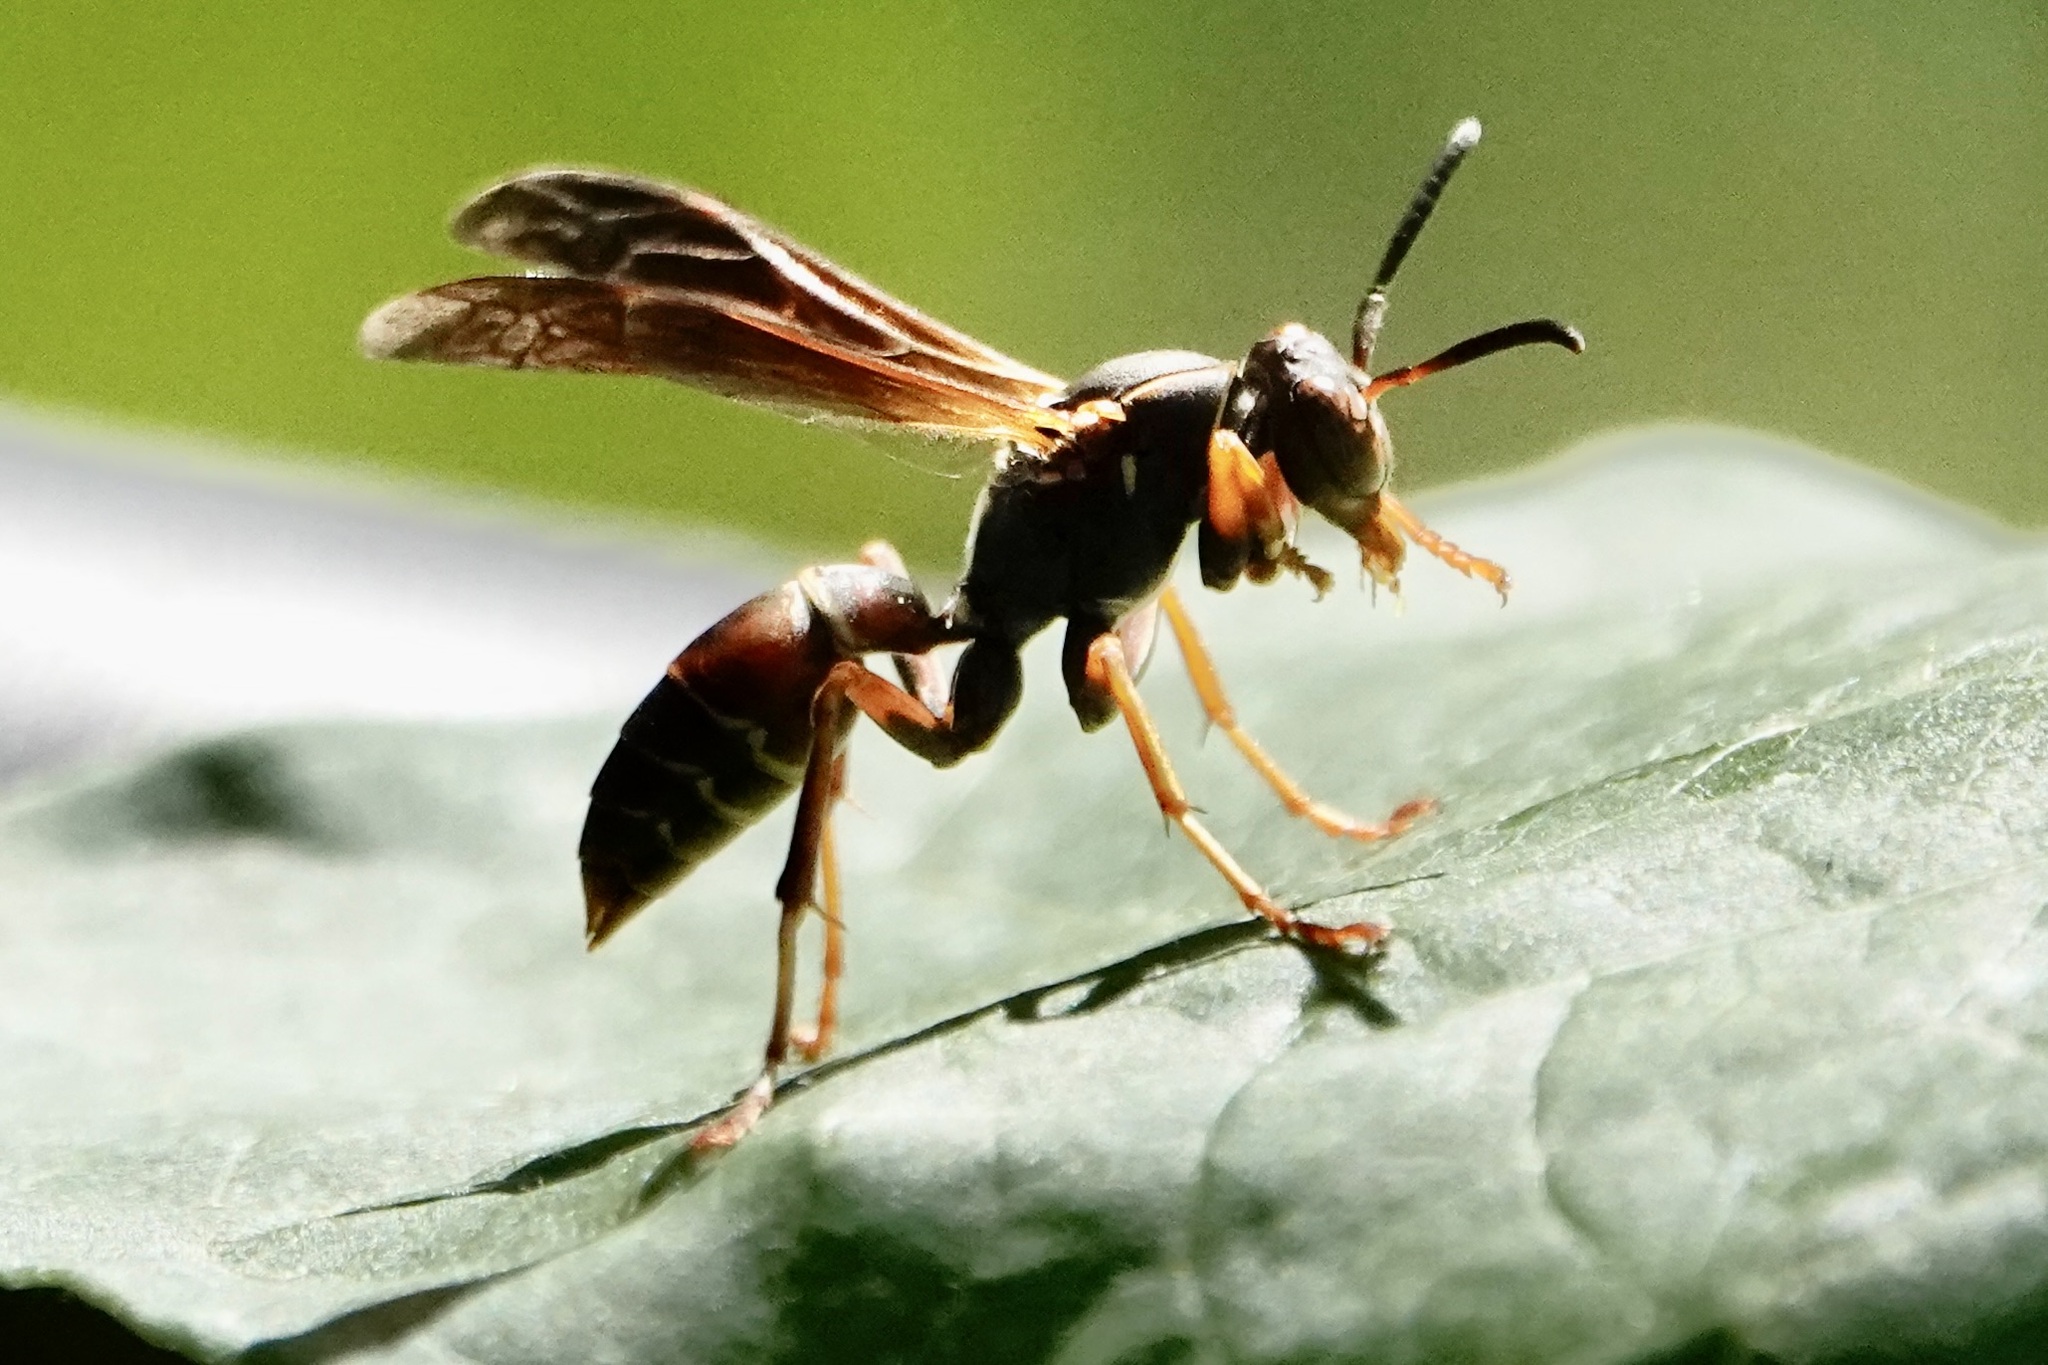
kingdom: Animalia
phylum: Arthropoda
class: Insecta
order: Hymenoptera
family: Eumenidae
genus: Polistes
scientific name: Polistes fuscatus
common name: Dark paper wasp
